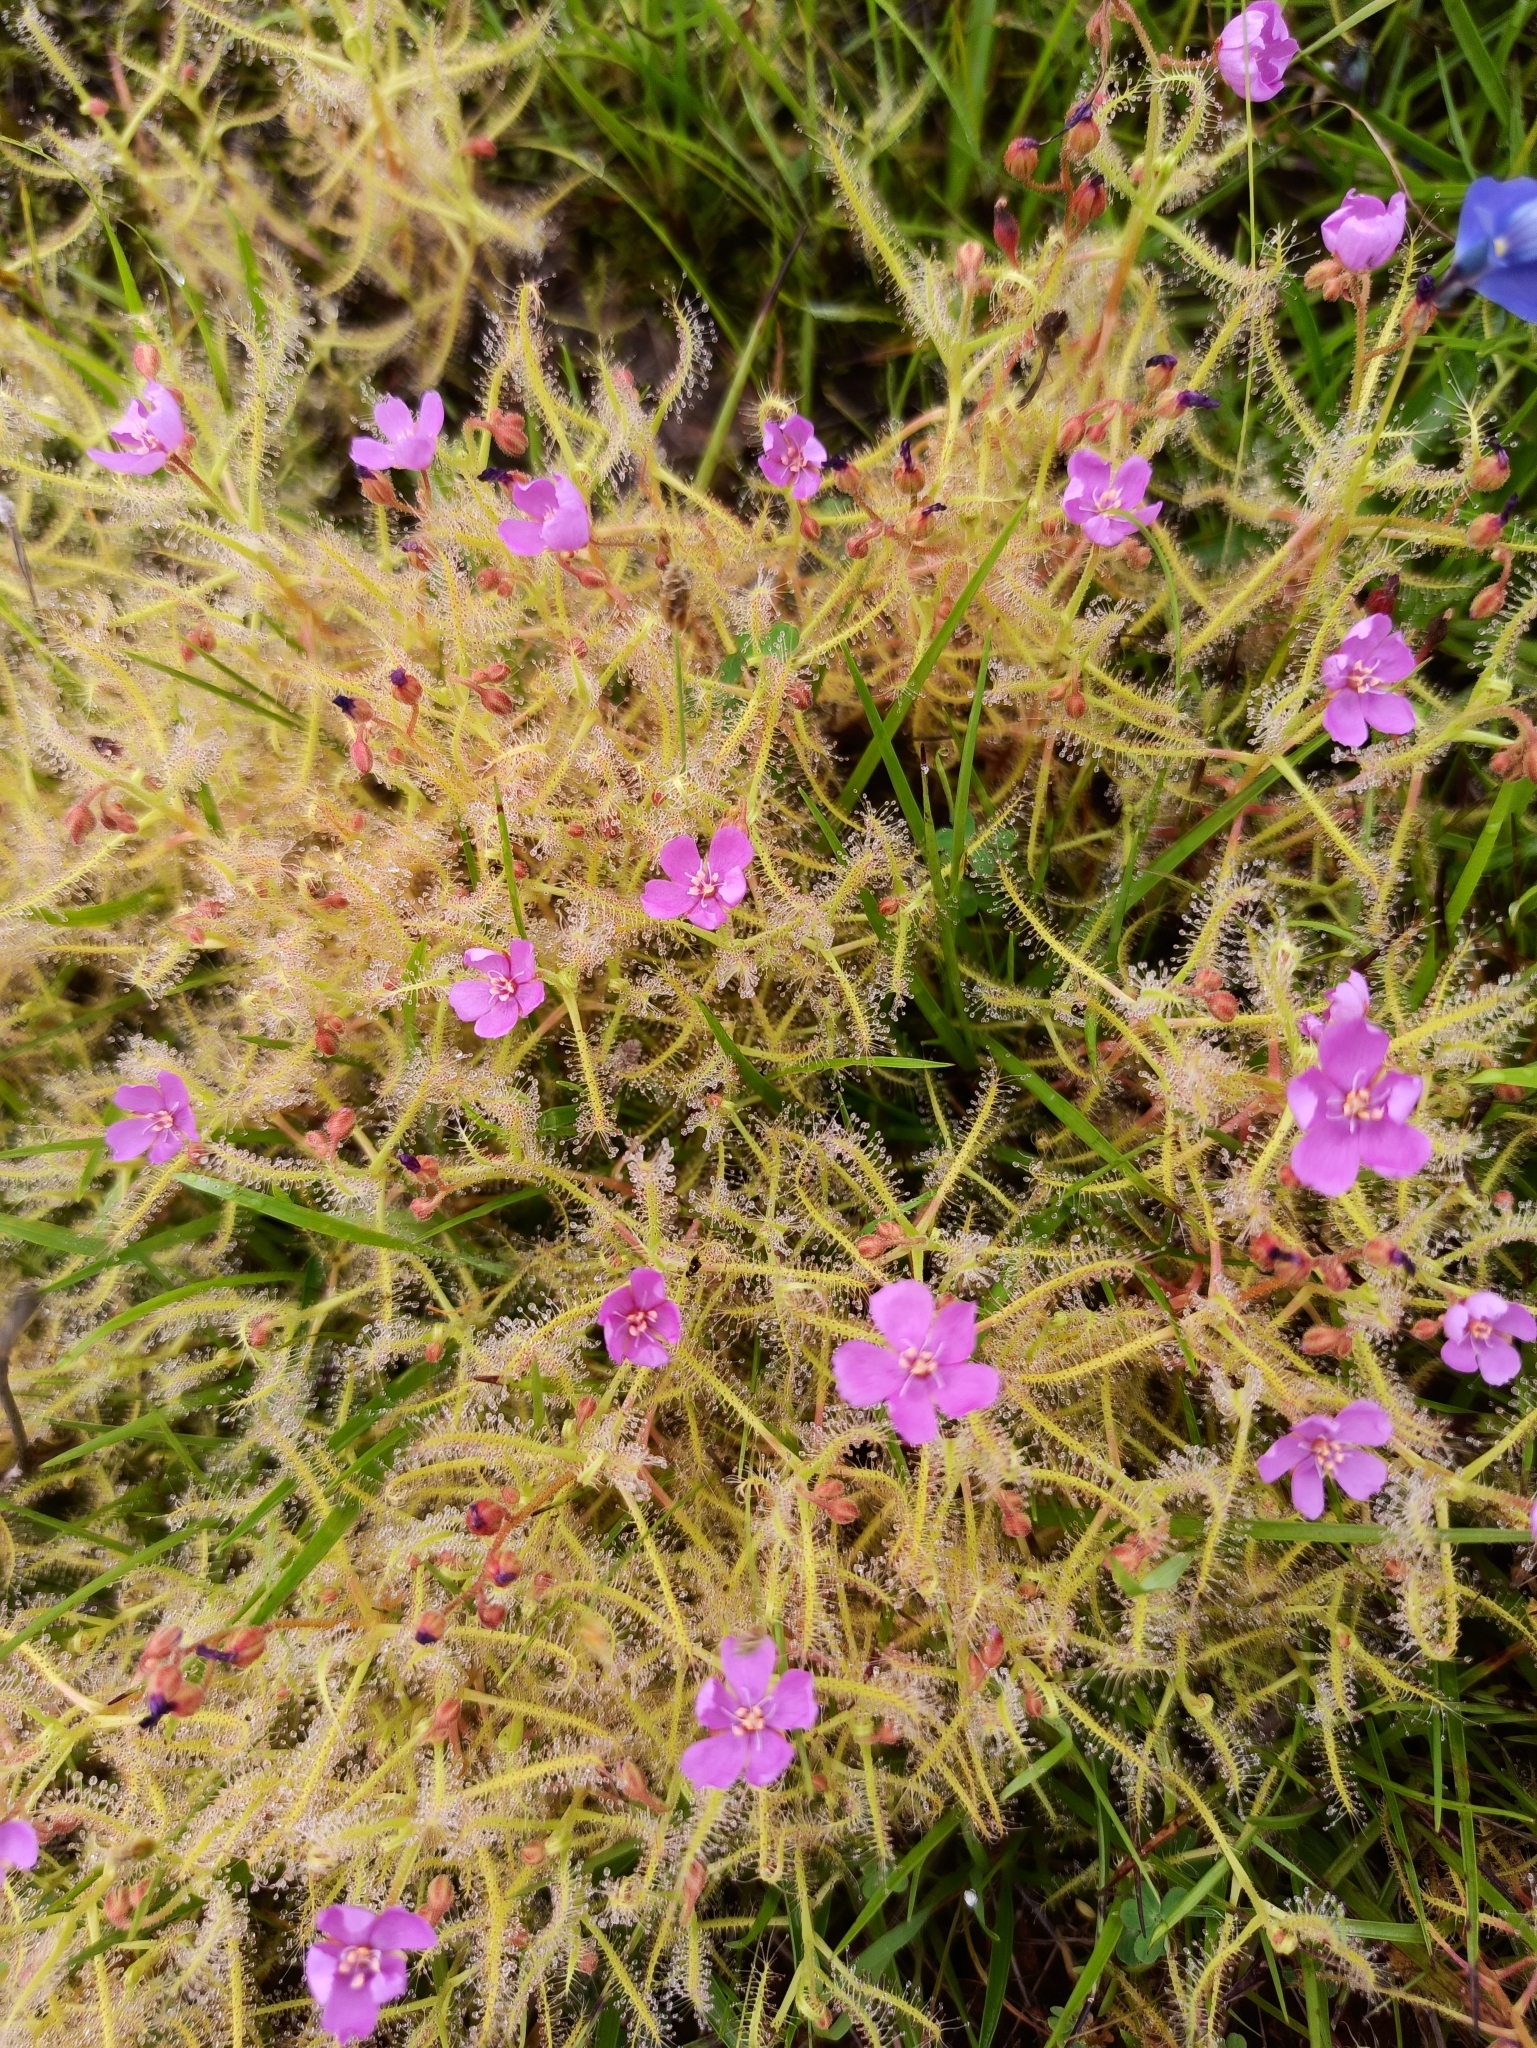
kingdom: Plantae
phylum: Tracheophyta
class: Magnoliopsida
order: Caryophyllales
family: Droseraceae
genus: Drosera
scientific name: Drosera indica
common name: Indian sundew
